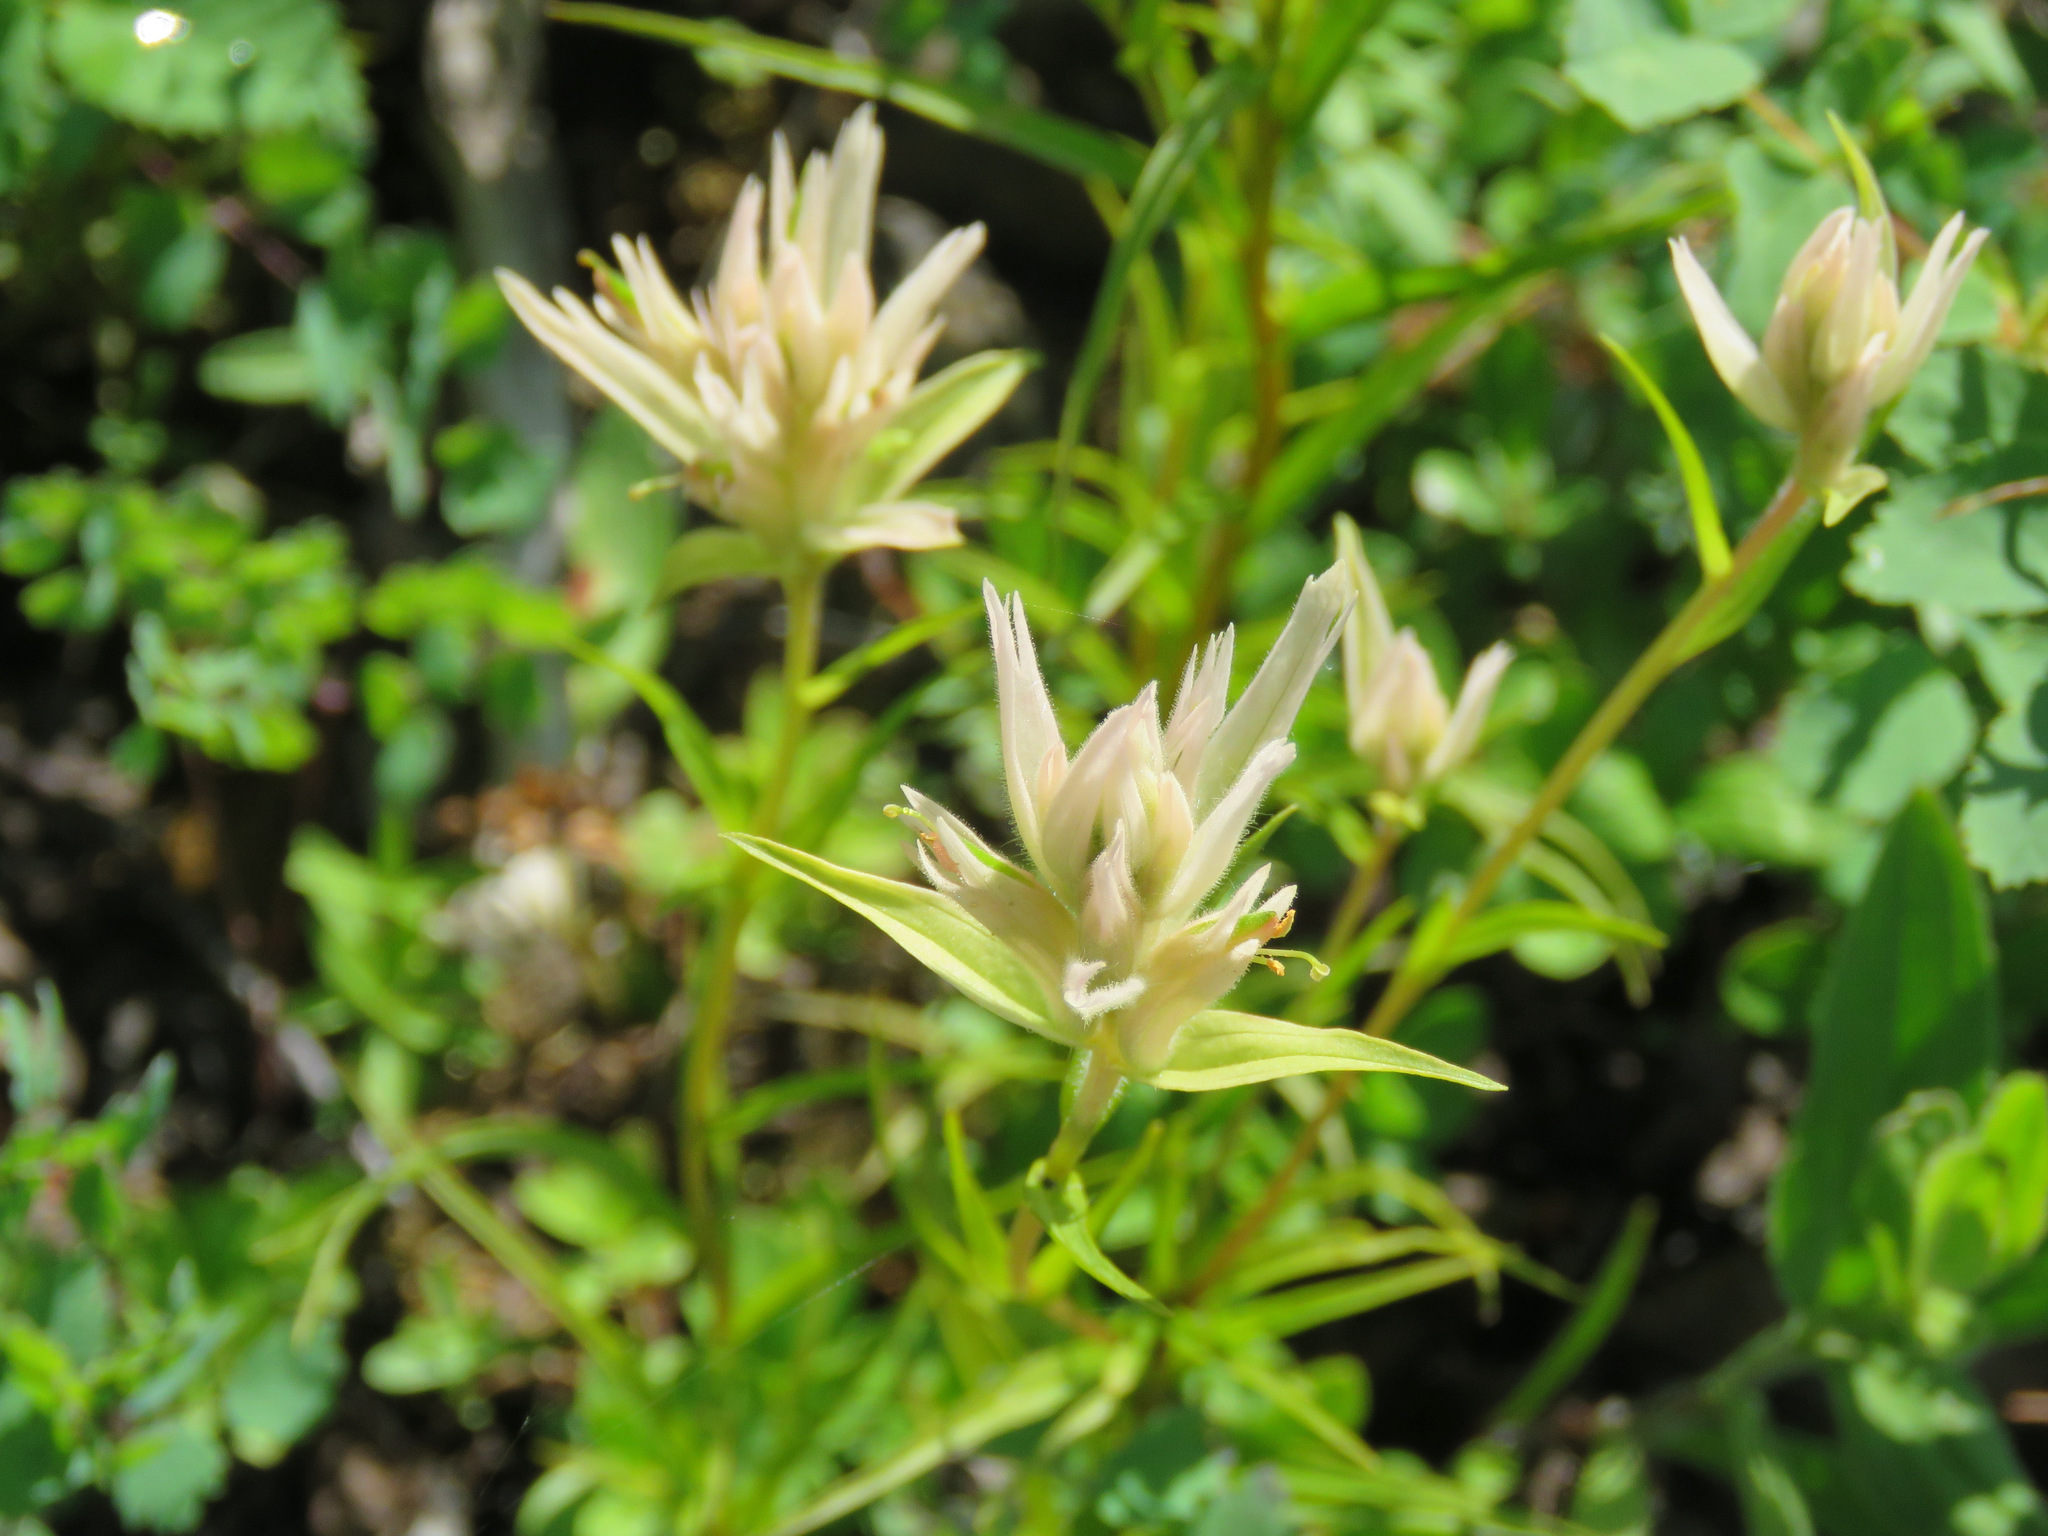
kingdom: Plantae
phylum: Tracheophyta
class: Magnoliopsida
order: Lamiales
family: Orobanchaceae
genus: Castilleja
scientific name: Castilleja miniata
